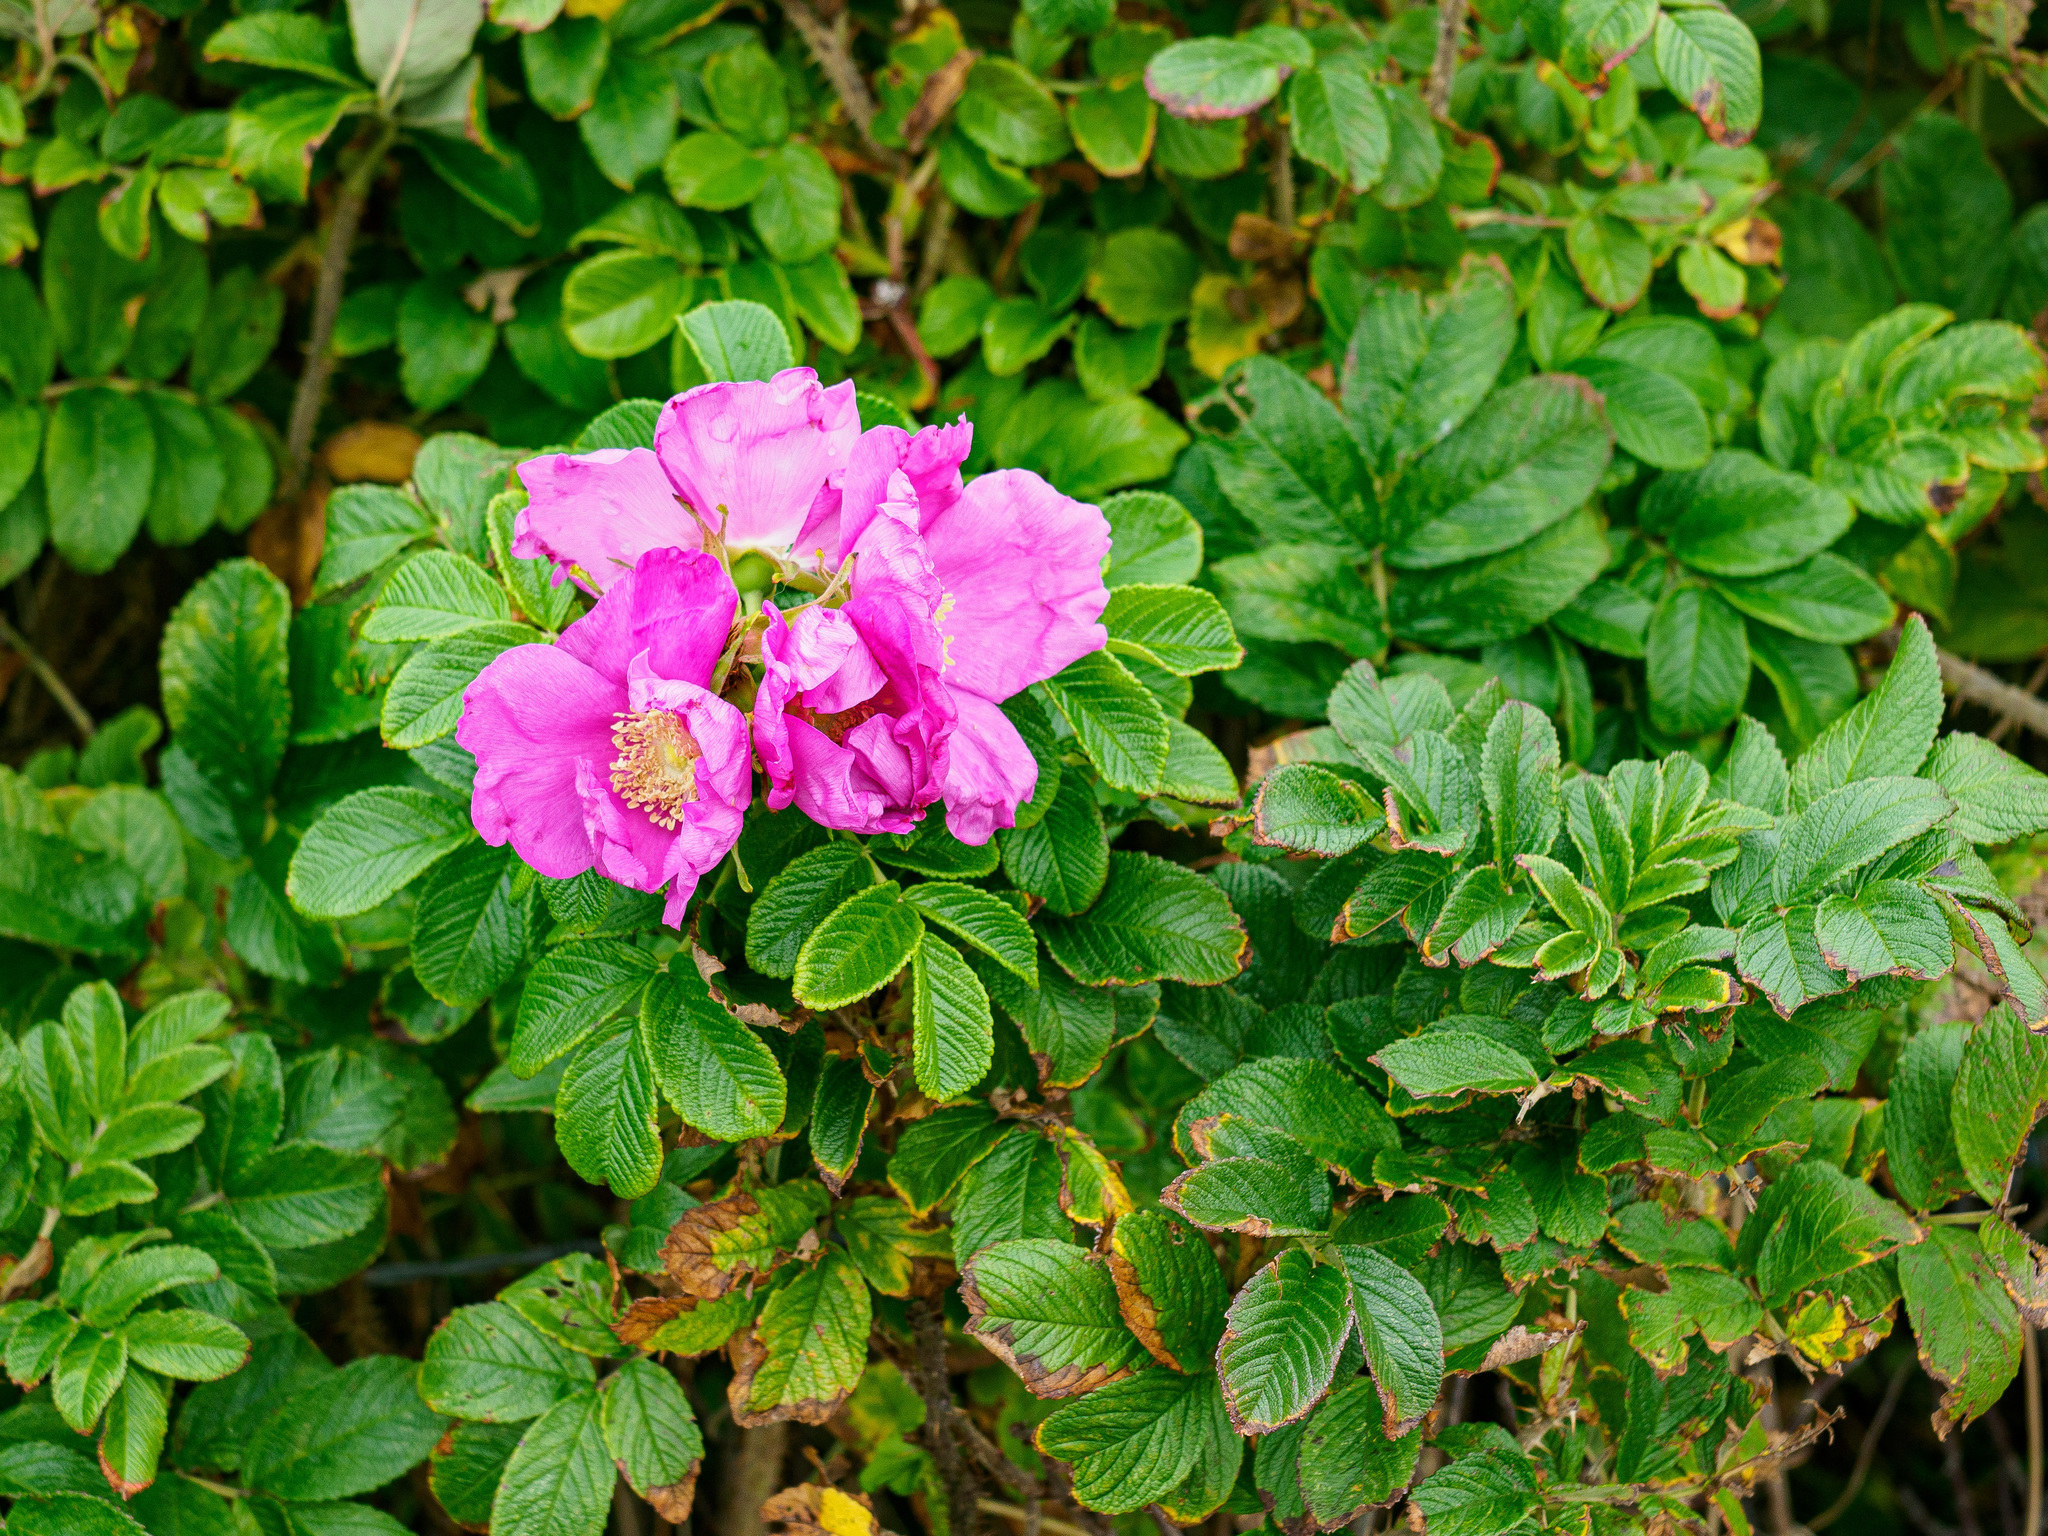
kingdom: Plantae
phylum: Tracheophyta
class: Magnoliopsida
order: Rosales
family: Rosaceae
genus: Rosa
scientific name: Rosa rugosa
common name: Japanese rose
